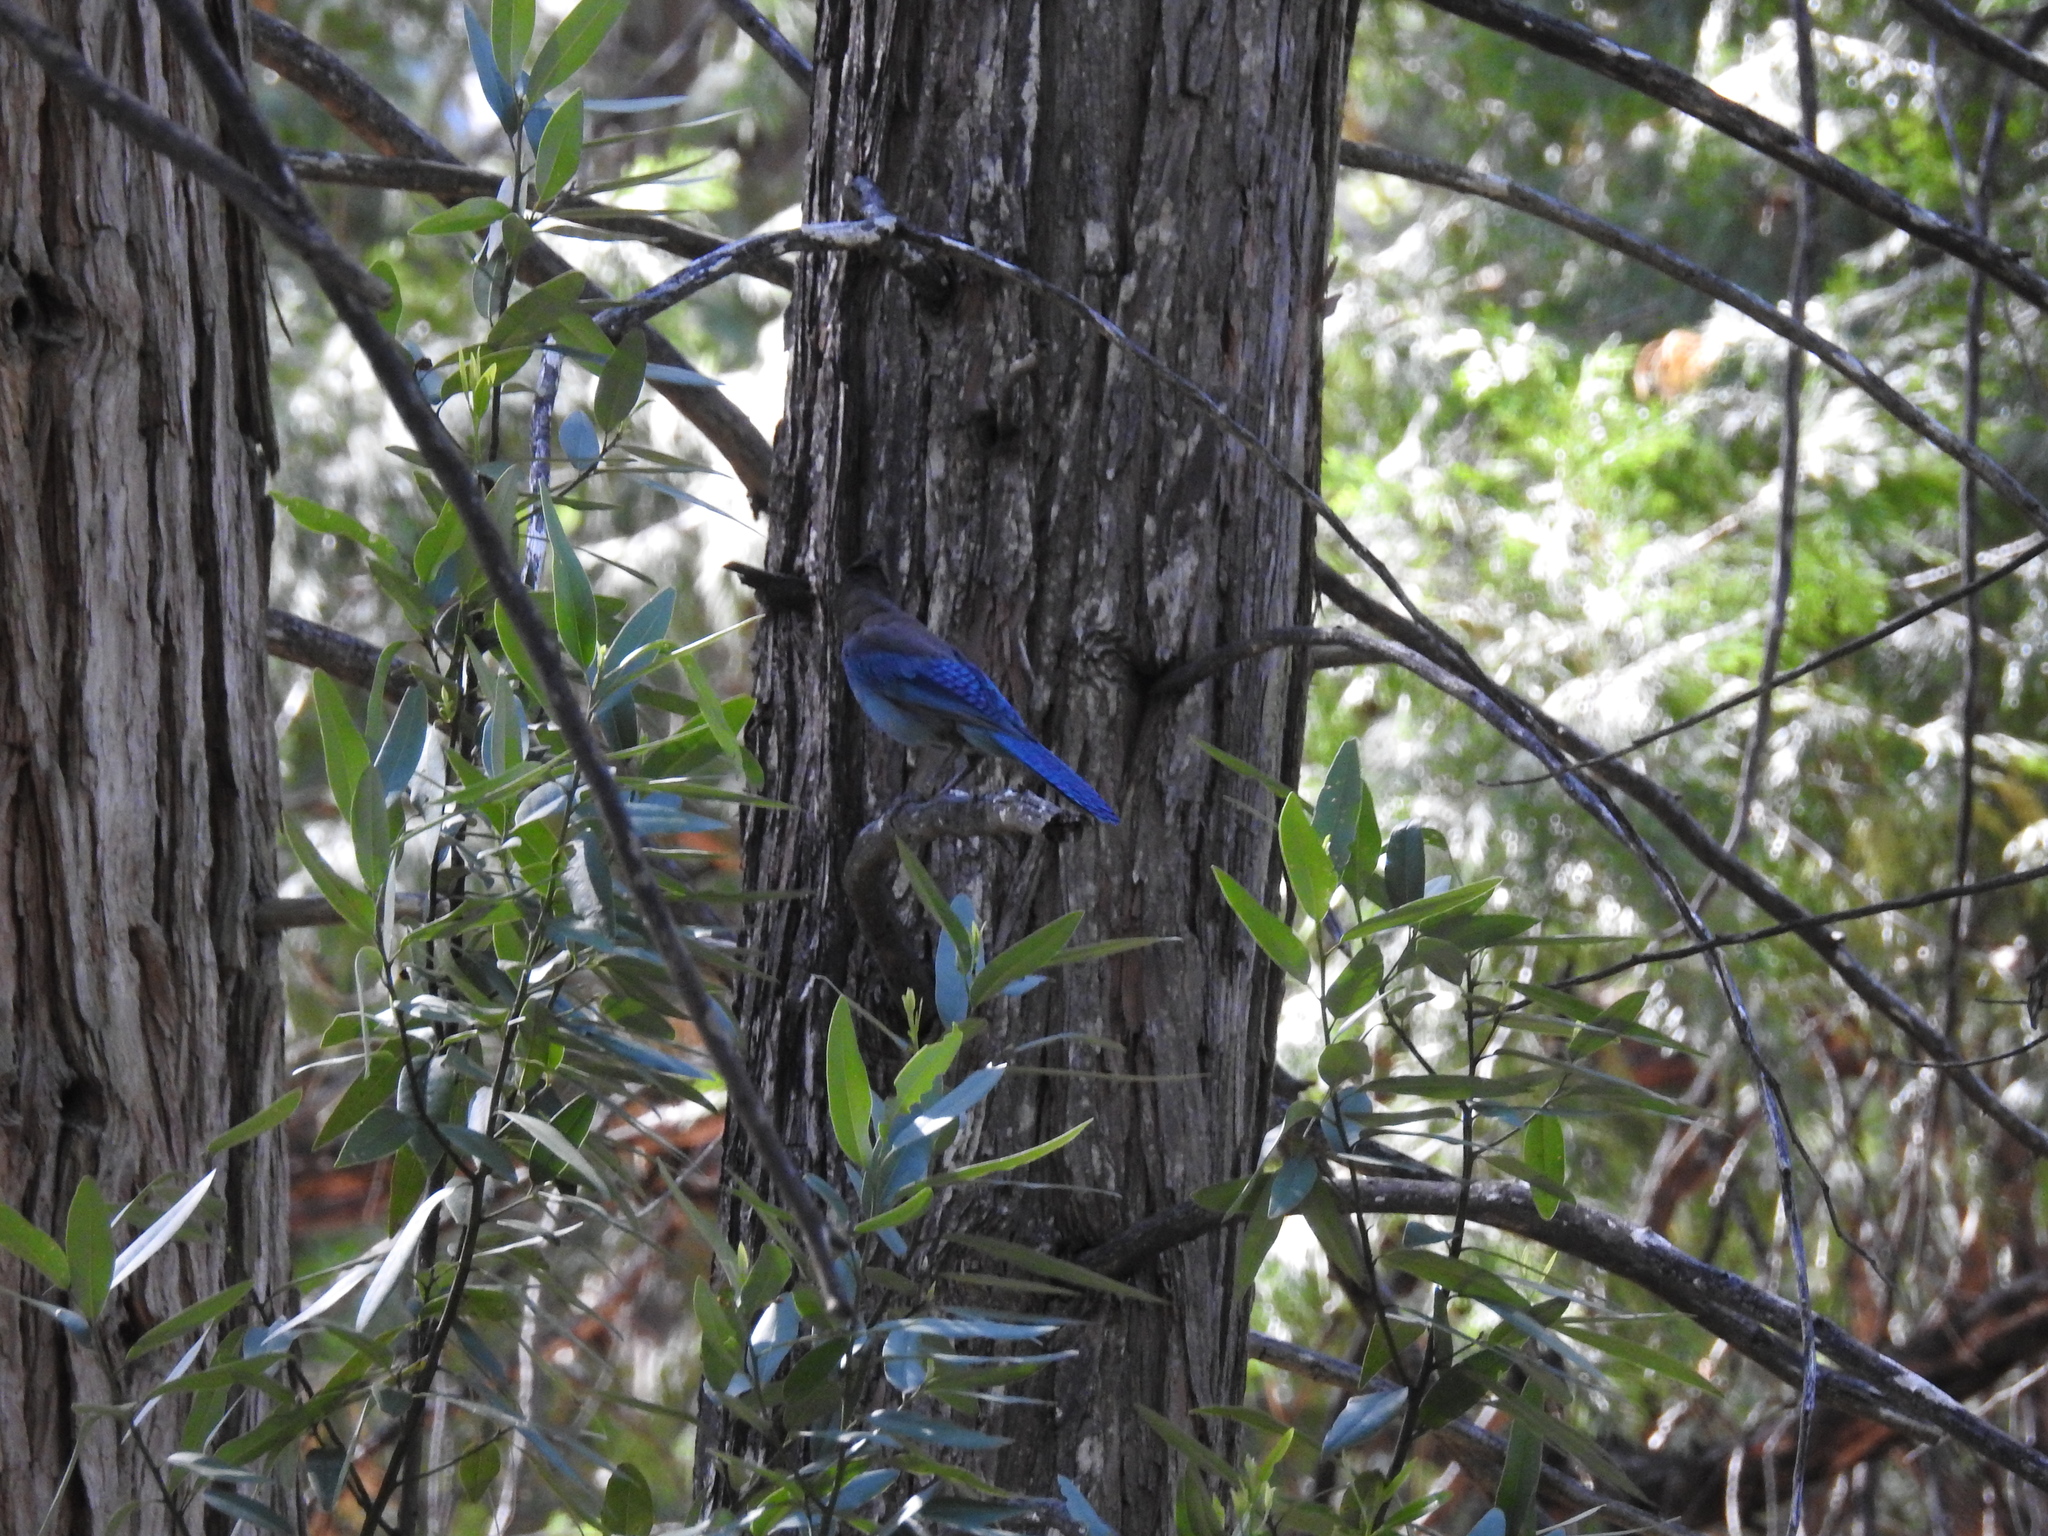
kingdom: Animalia
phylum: Chordata
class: Aves
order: Passeriformes
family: Corvidae
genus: Cyanocitta
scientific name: Cyanocitta stelleri
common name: Steller's jay
